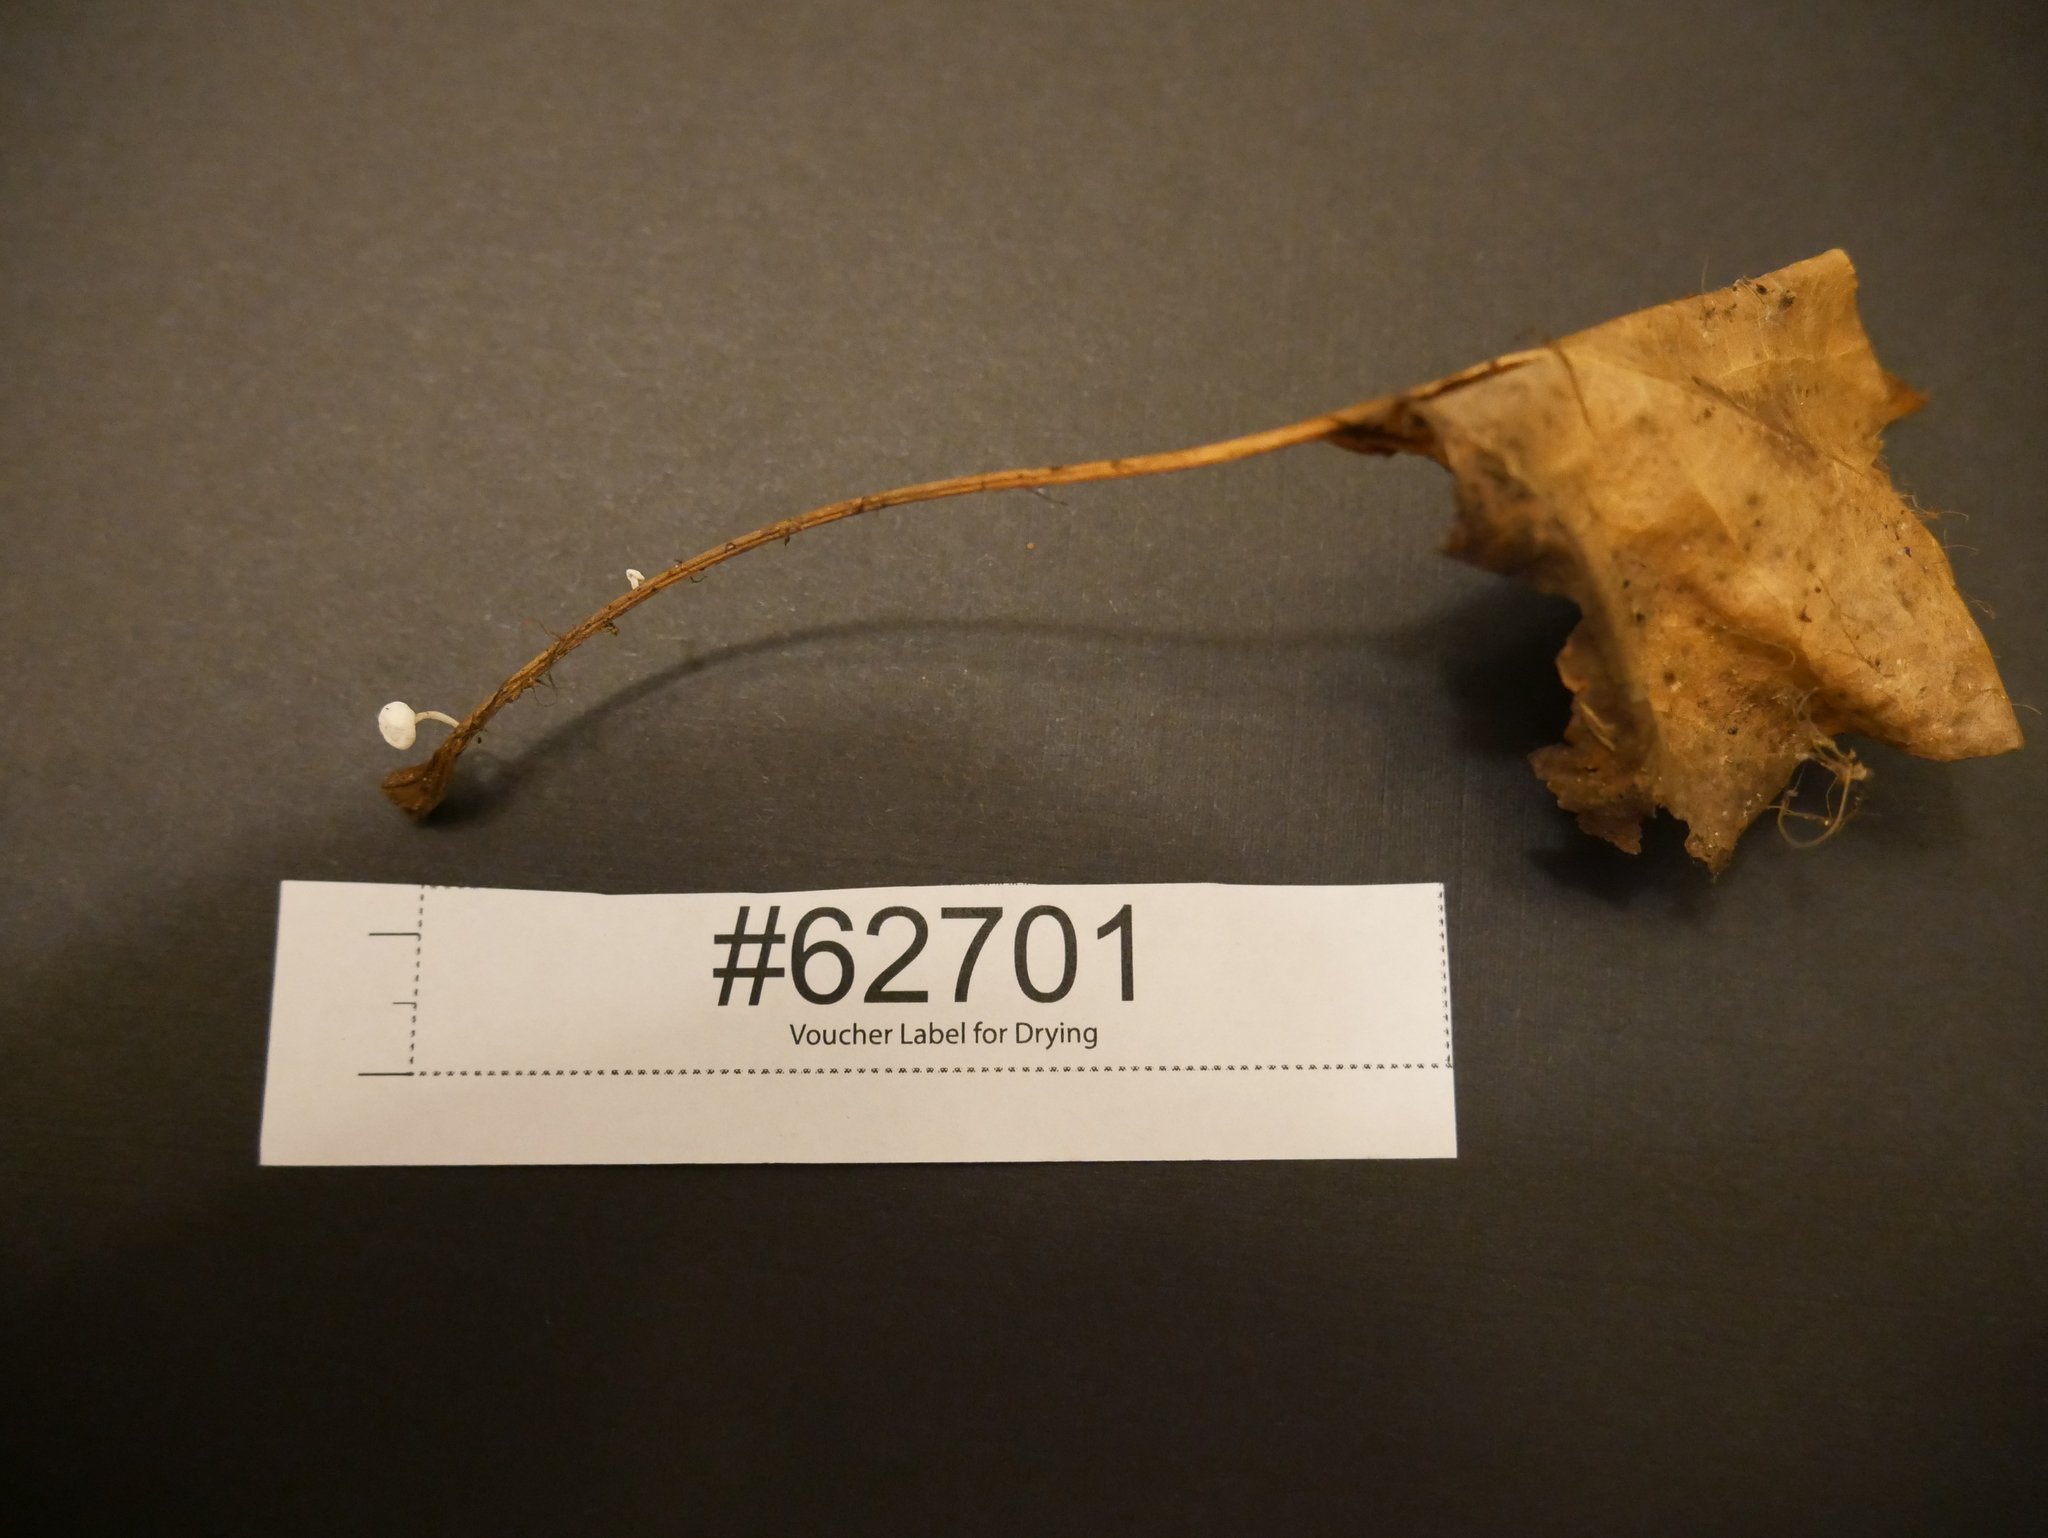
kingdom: Fungi
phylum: Basidiomycota
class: Agaricomycetes
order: Agaricales
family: Marasmiaceae
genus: Tetrapyrgos
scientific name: Tetrapyrgos nigripes
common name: Black-stalked marasmius
